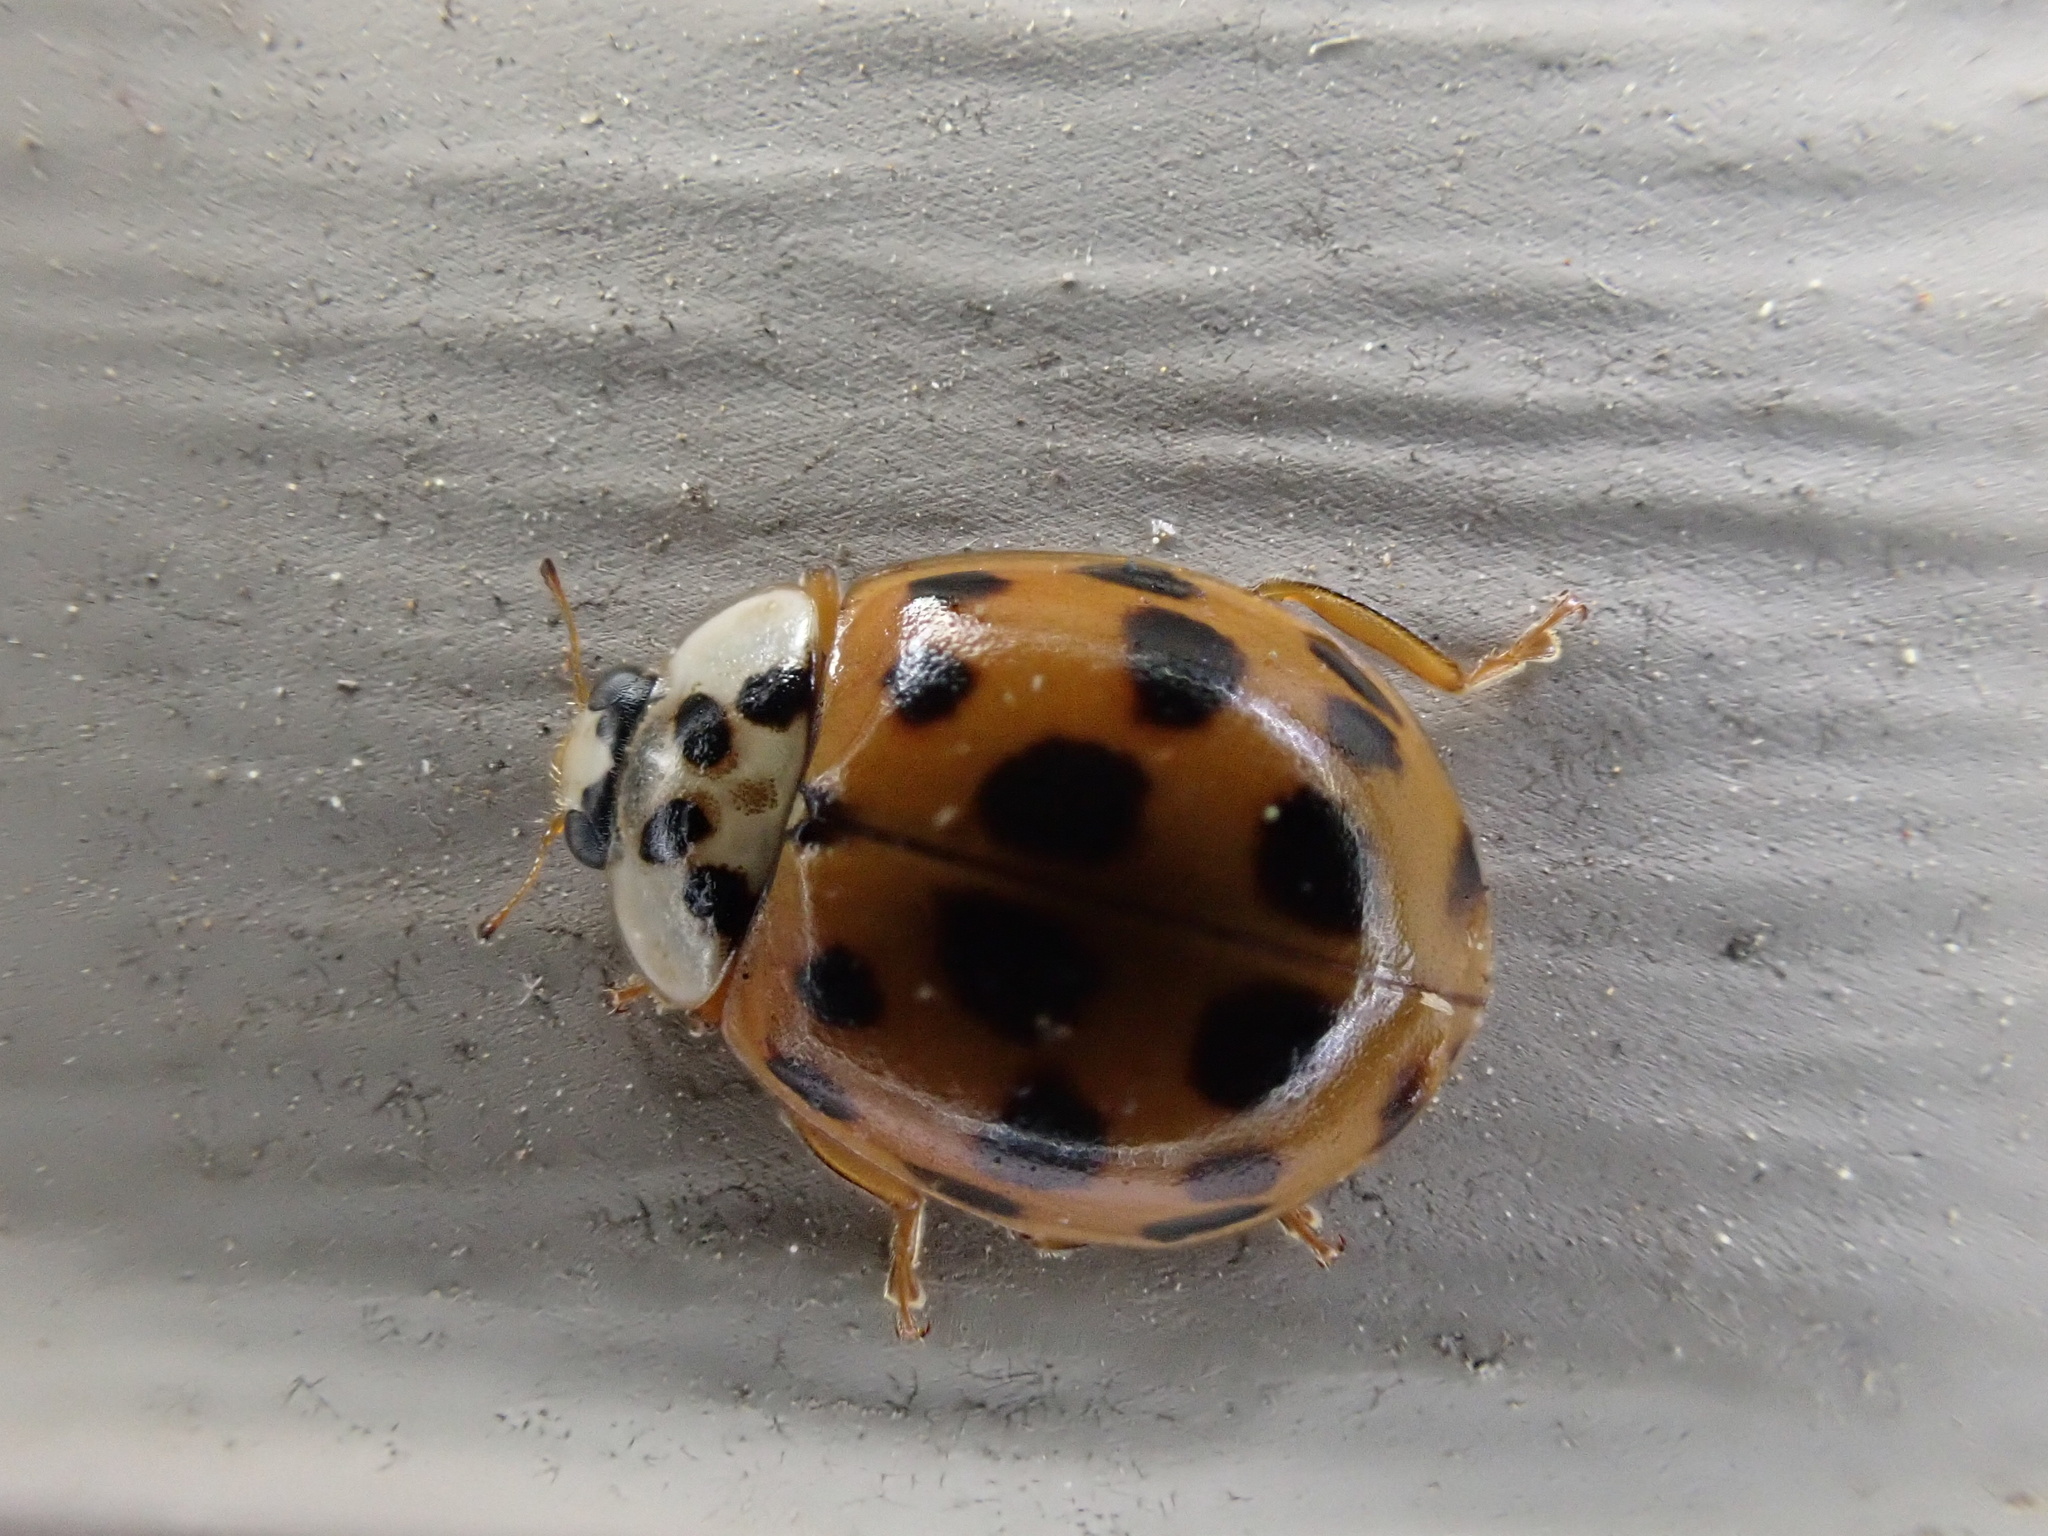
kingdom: Animalia
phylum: Arthropoda
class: Insecta
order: Coleoptera
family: Coccinellidae
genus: Harmonia
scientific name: Harmonia axyridis
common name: Harlequin ladybird
